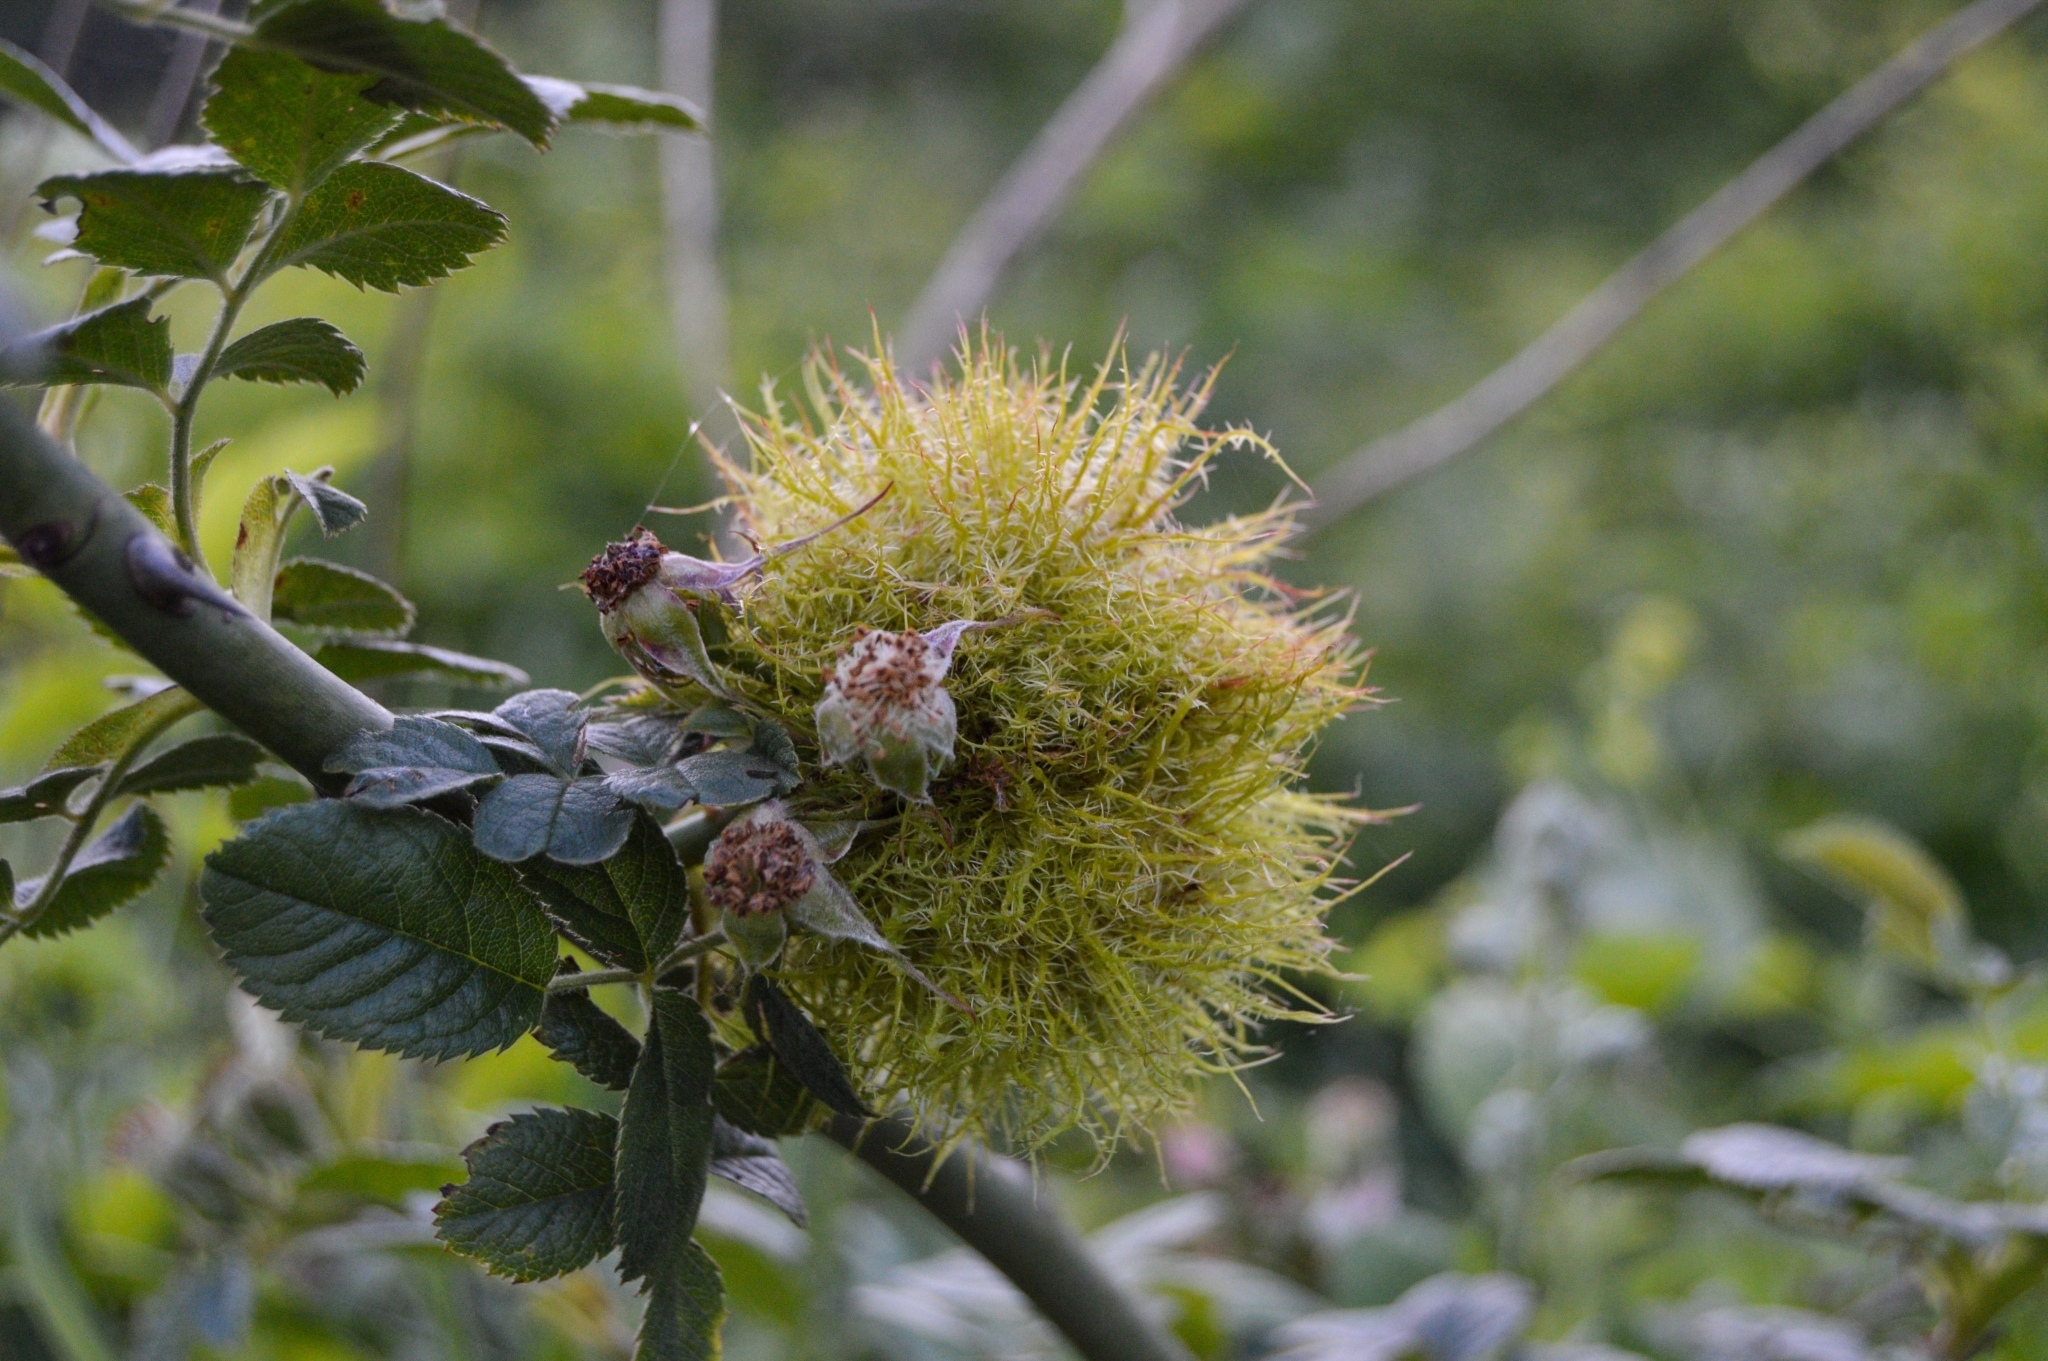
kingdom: Animalia
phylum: Arthropoda
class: Insecta
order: Hymenoptera
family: Cynipidae
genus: Diplolepis
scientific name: Diplolepis rosae
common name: Bedeguar gall
